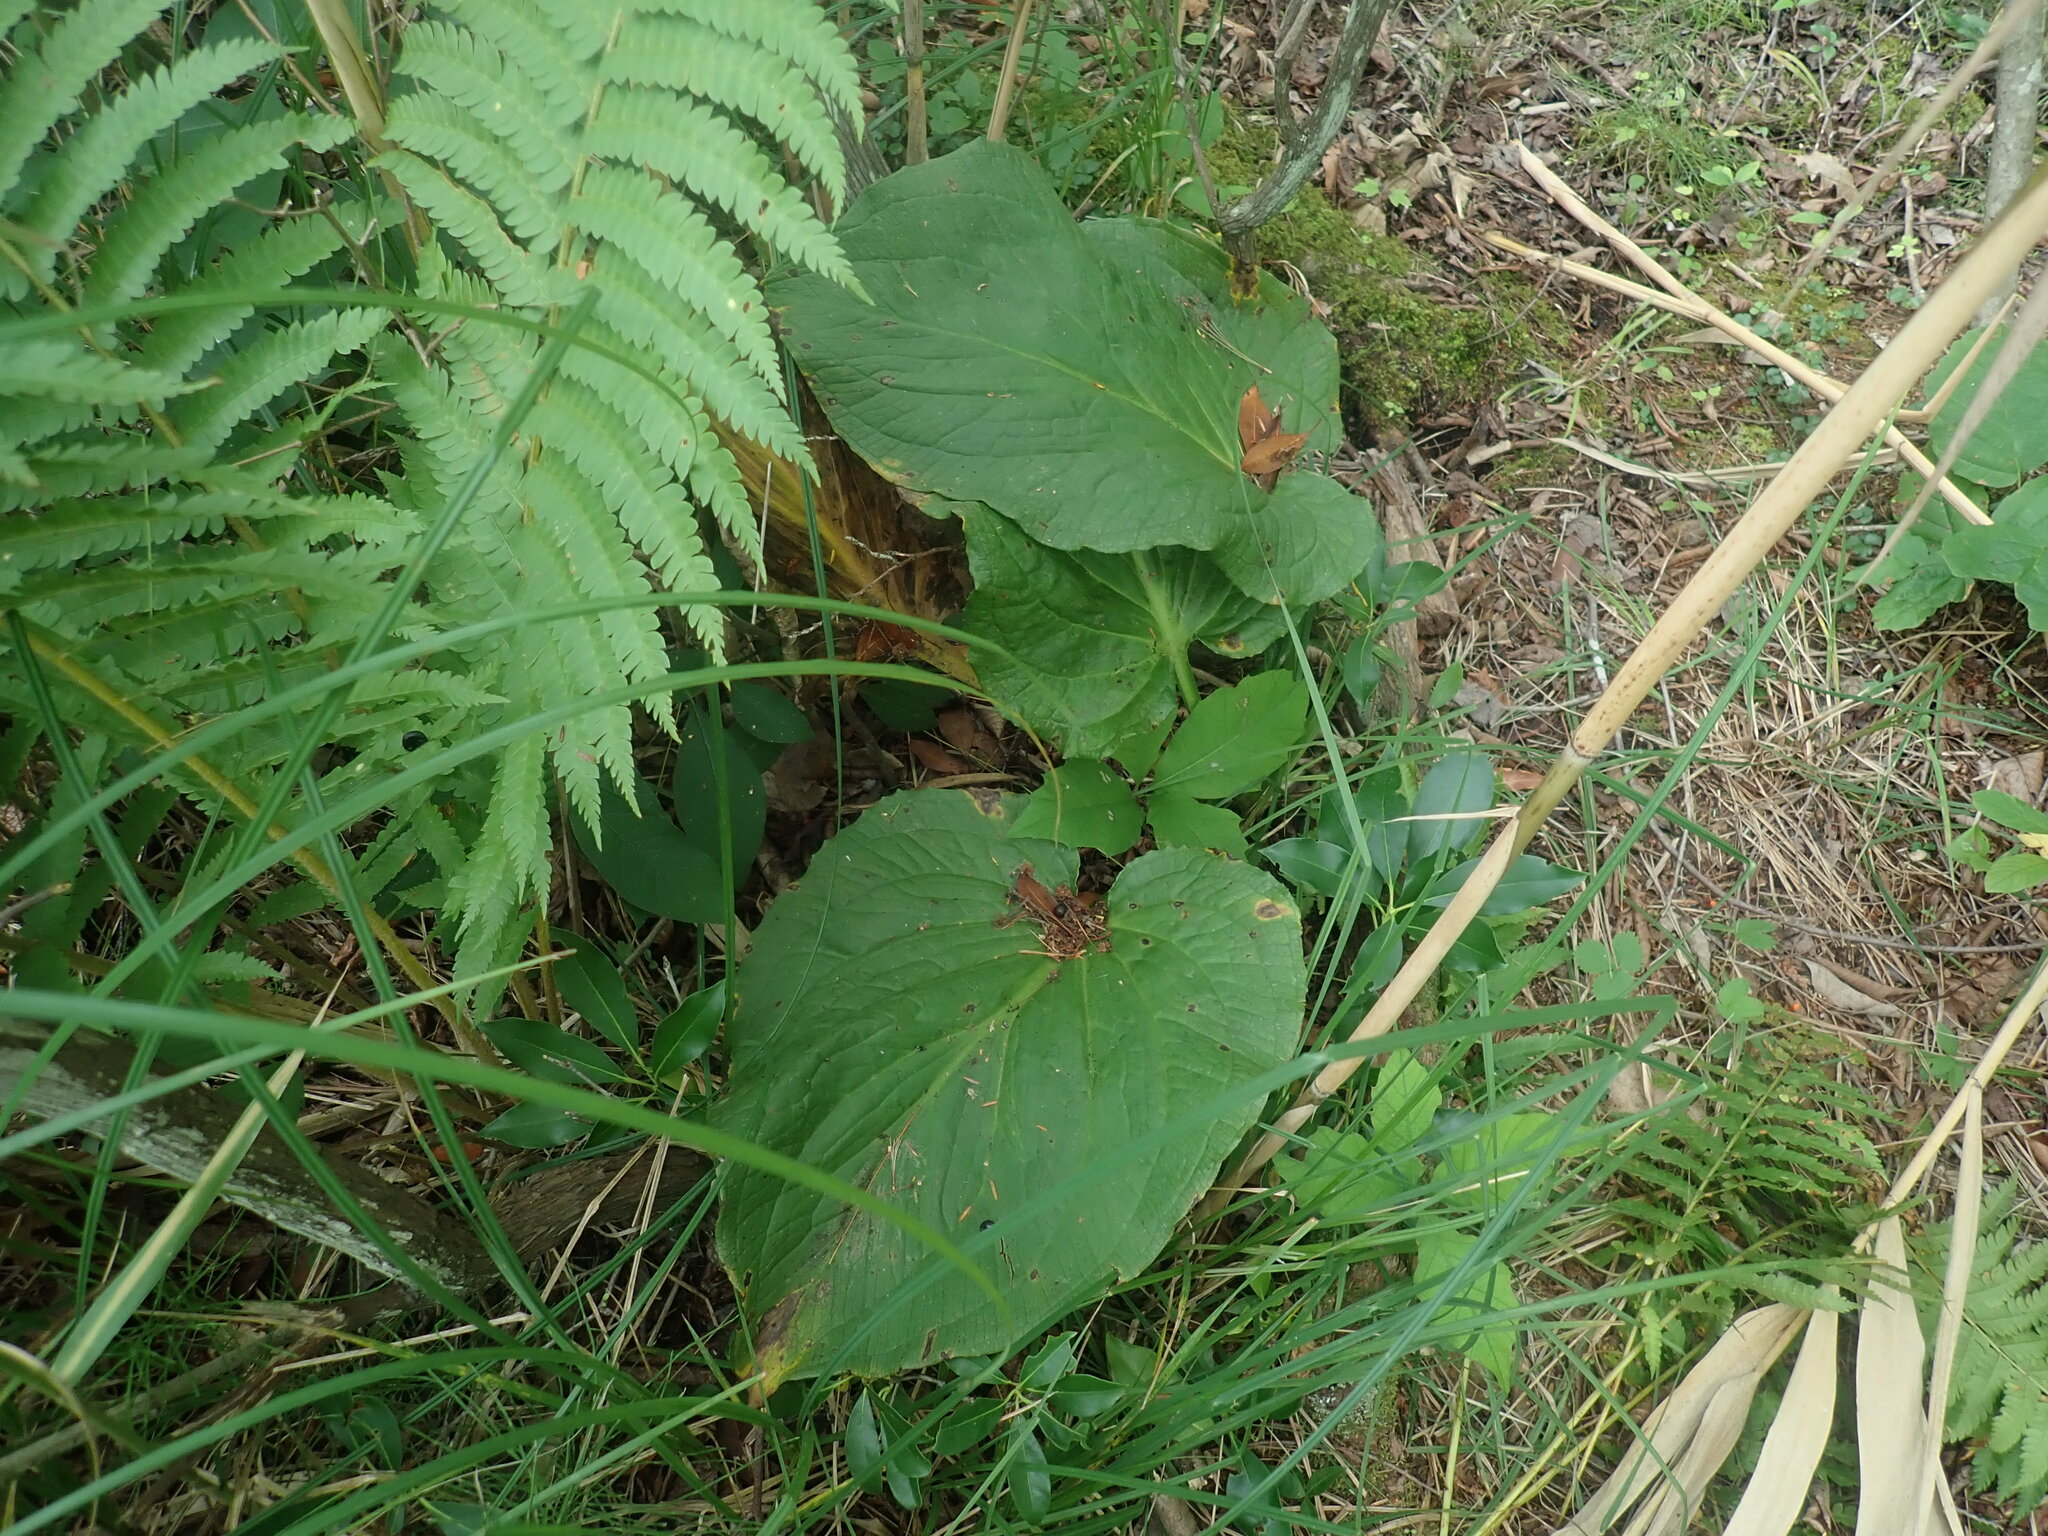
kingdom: Plantae
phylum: Tracheophyta
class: Liliopsida
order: Alismatales
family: Araceae
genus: Symplocarpus
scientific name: Symplocarpus foetidus
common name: Eastern skunk cabbage
